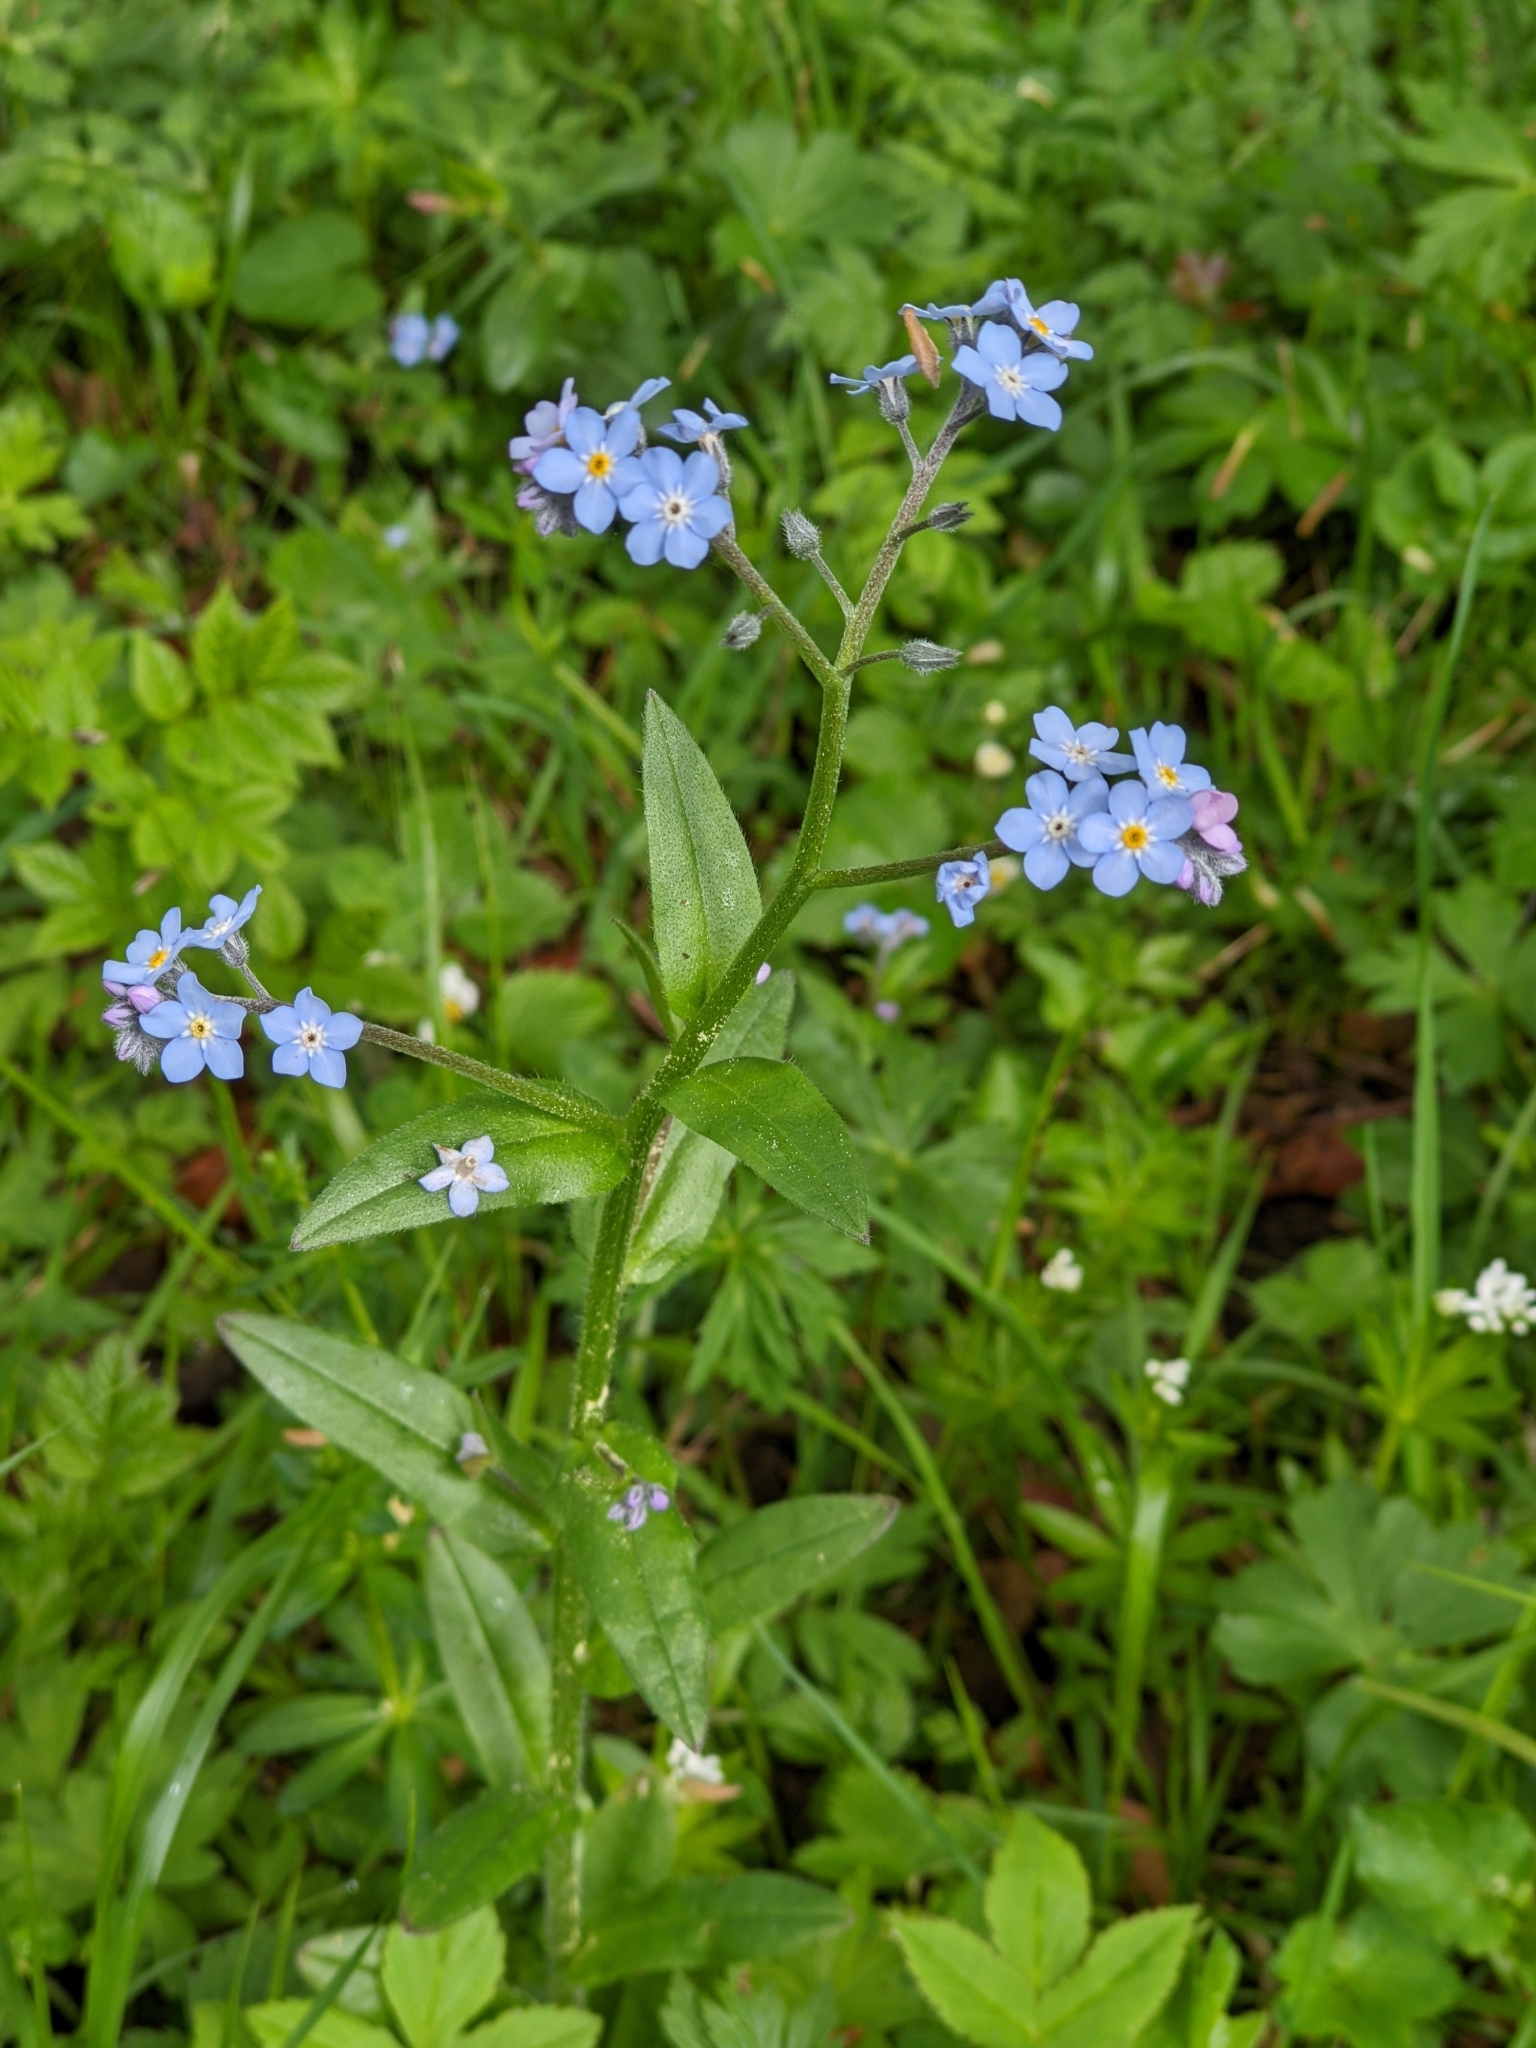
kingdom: Plantae
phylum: Tracheophyta
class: Magnoliopsida
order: Boraginales
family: Boraginaceae
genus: Myosotis
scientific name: Myosotis sylvatica
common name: Wood forget-me-not
